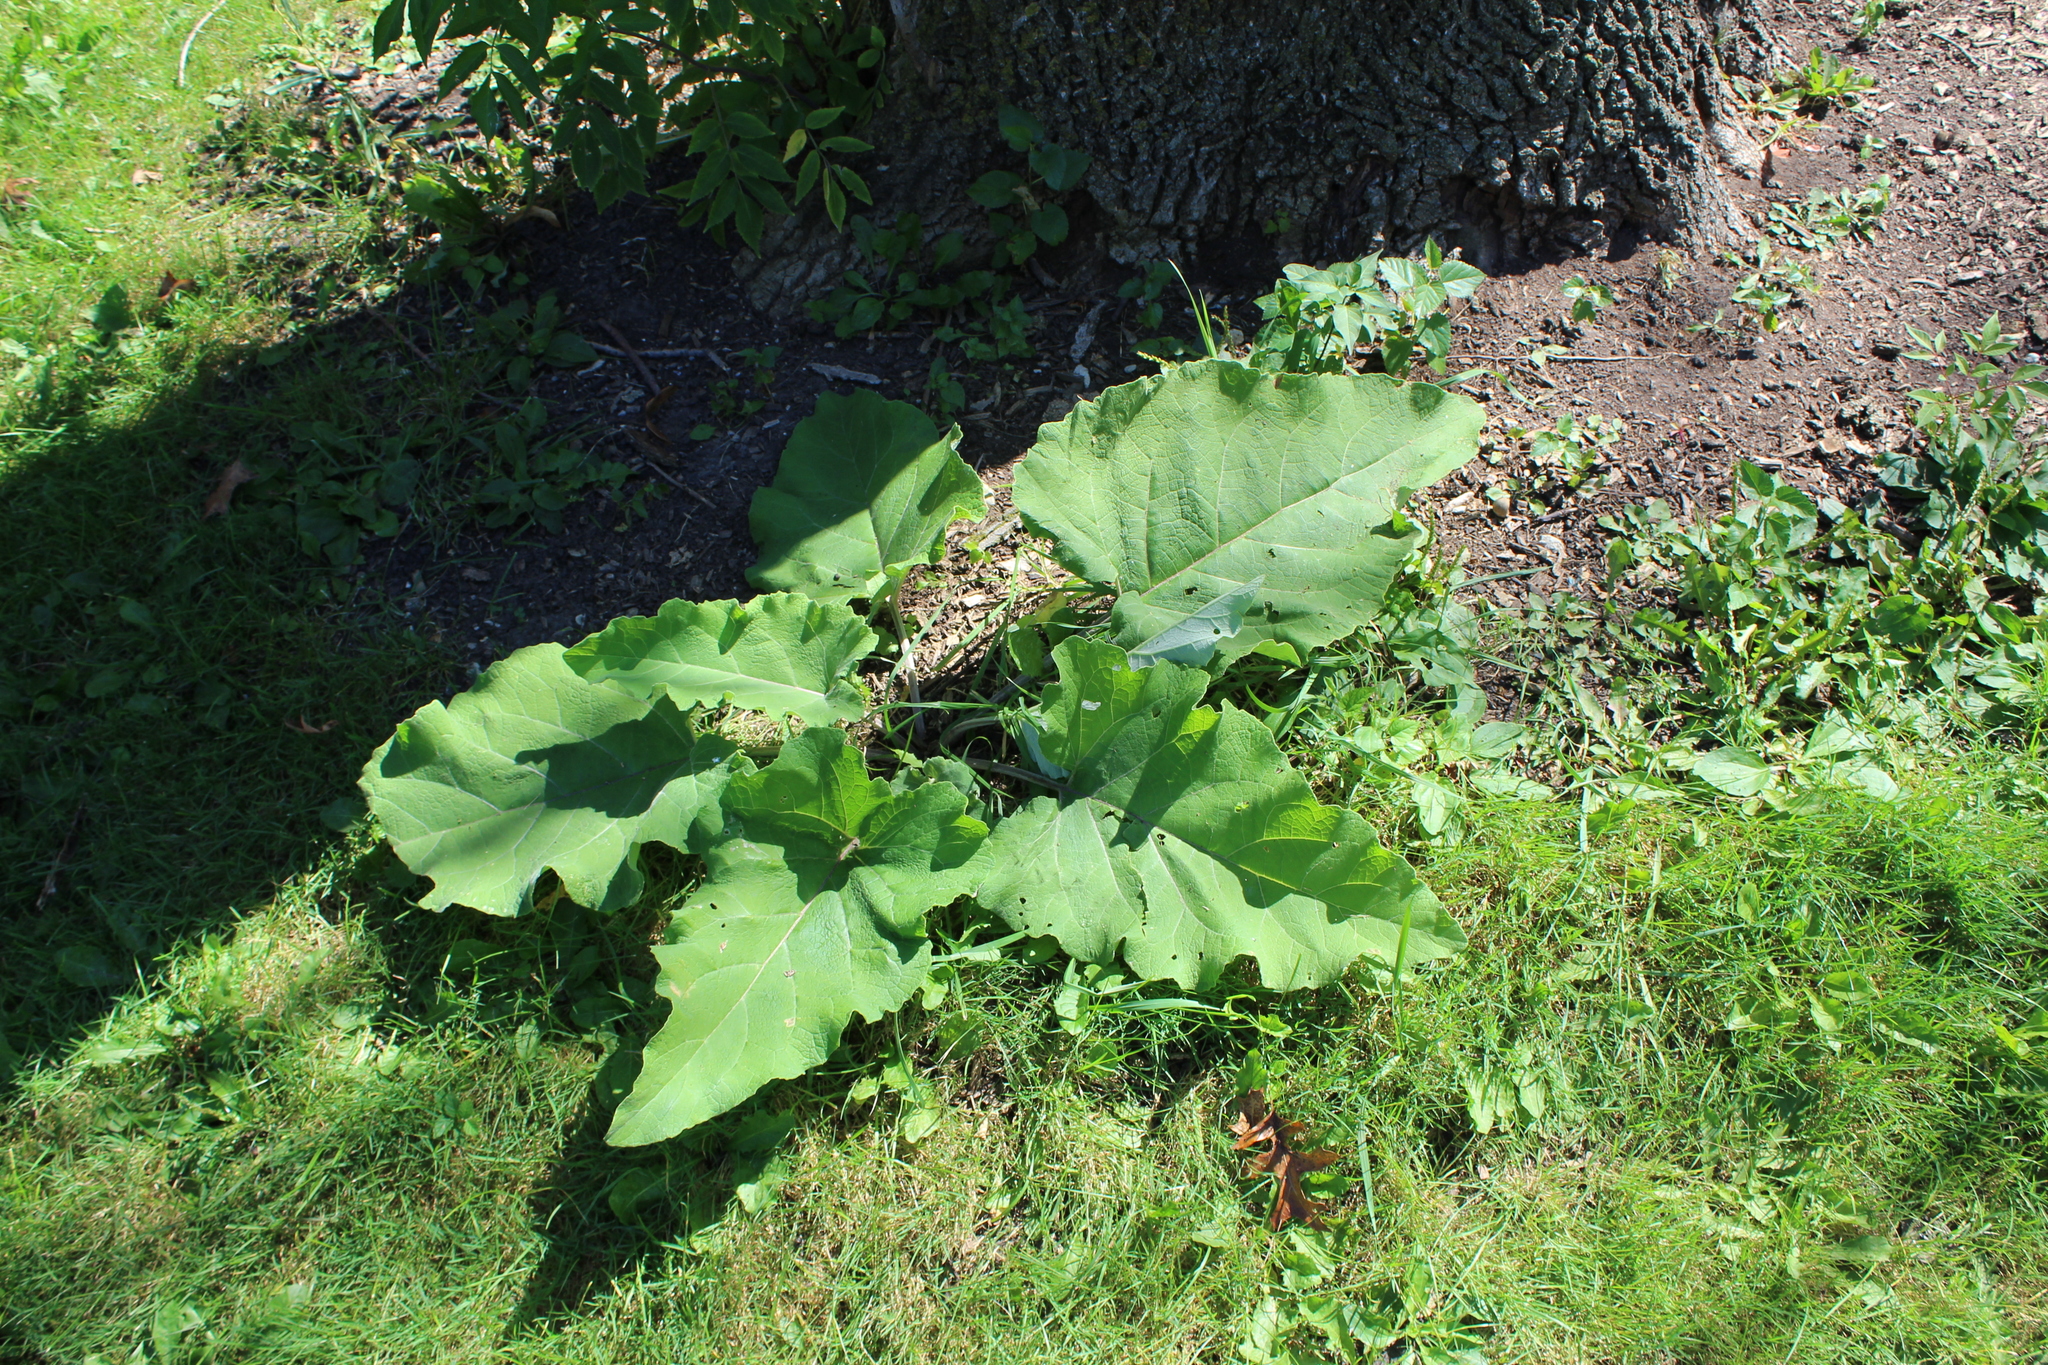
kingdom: Plantae
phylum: Tracheophyta
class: Magnoliopsida
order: Asterales
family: Asteraceae
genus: Arctium
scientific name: Arctium
